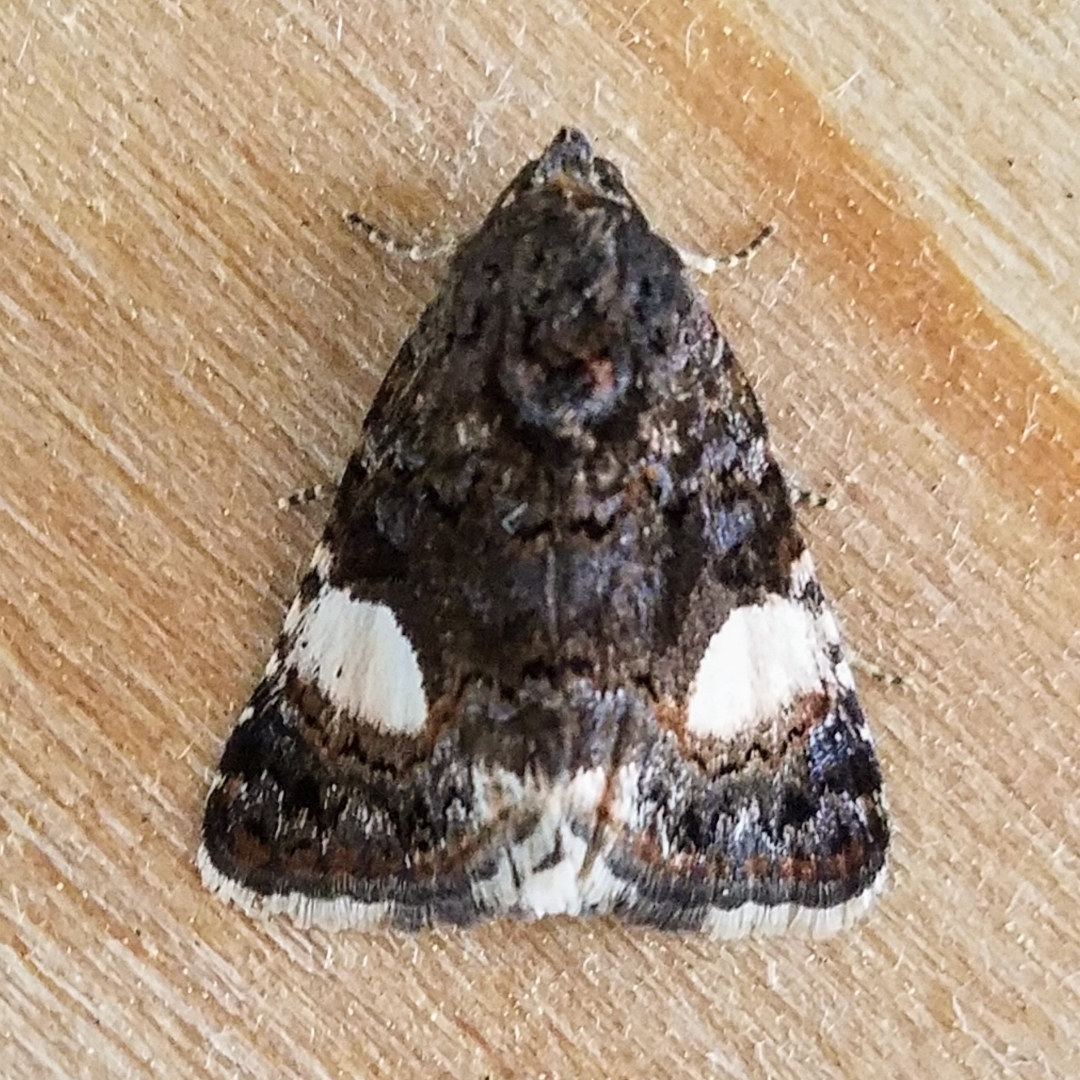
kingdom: Animalia
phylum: Arthropoda
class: Insecta
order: Lepidoptera
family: Erebidae
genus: Tyta
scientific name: Tyta luctuosa
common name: Four-spotted
